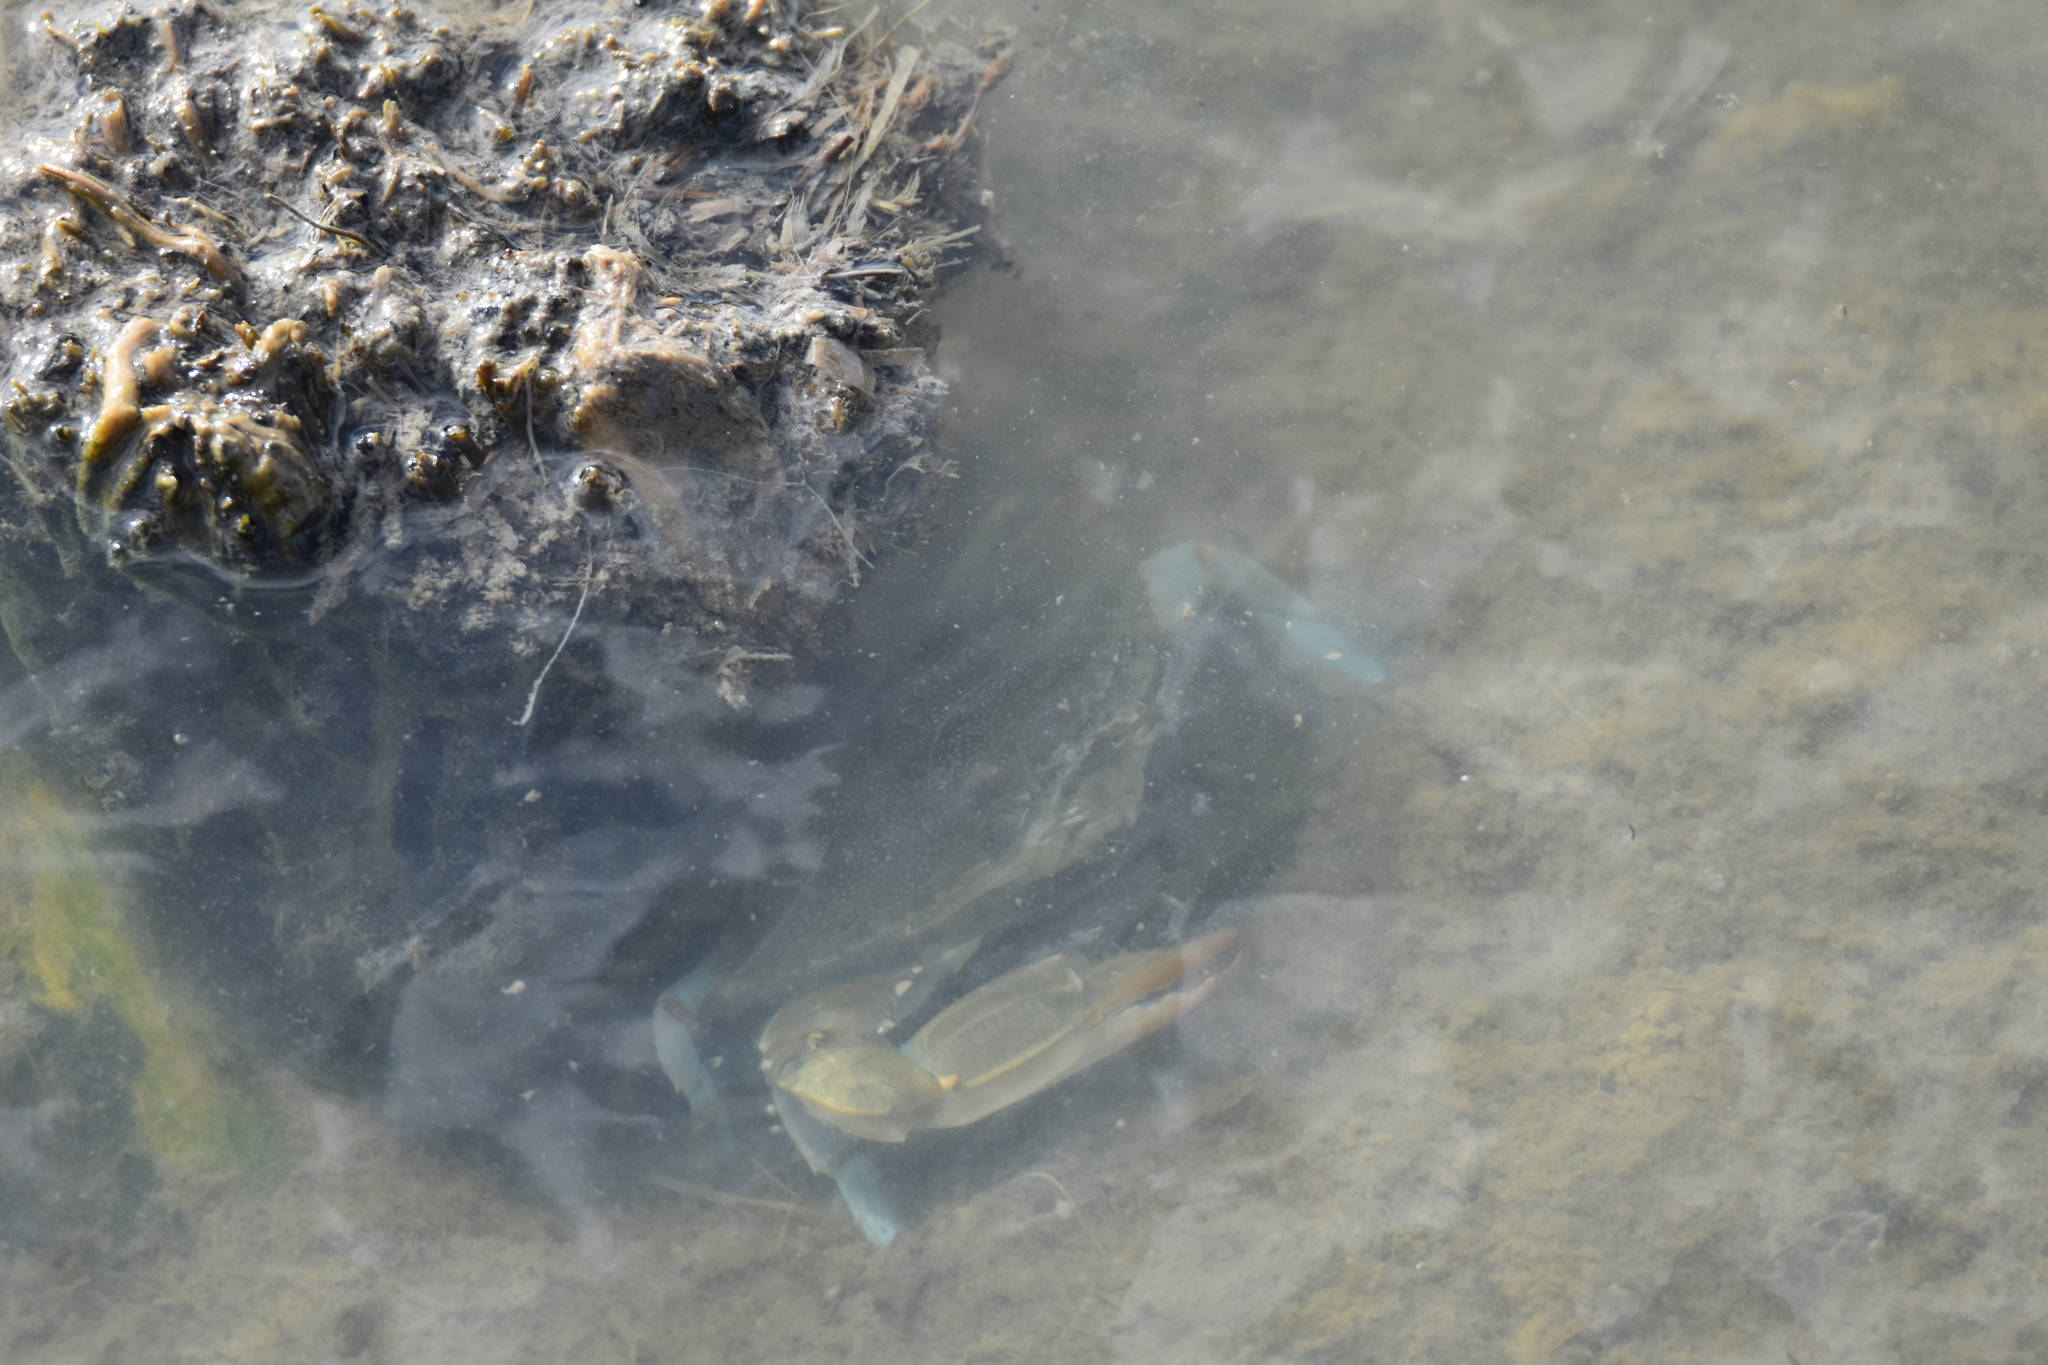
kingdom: Animalia
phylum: Arthropoda
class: Malacostraca
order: Decapoda
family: Portunidae
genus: Callinectes
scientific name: Callinectes sapidus
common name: Blue crab
